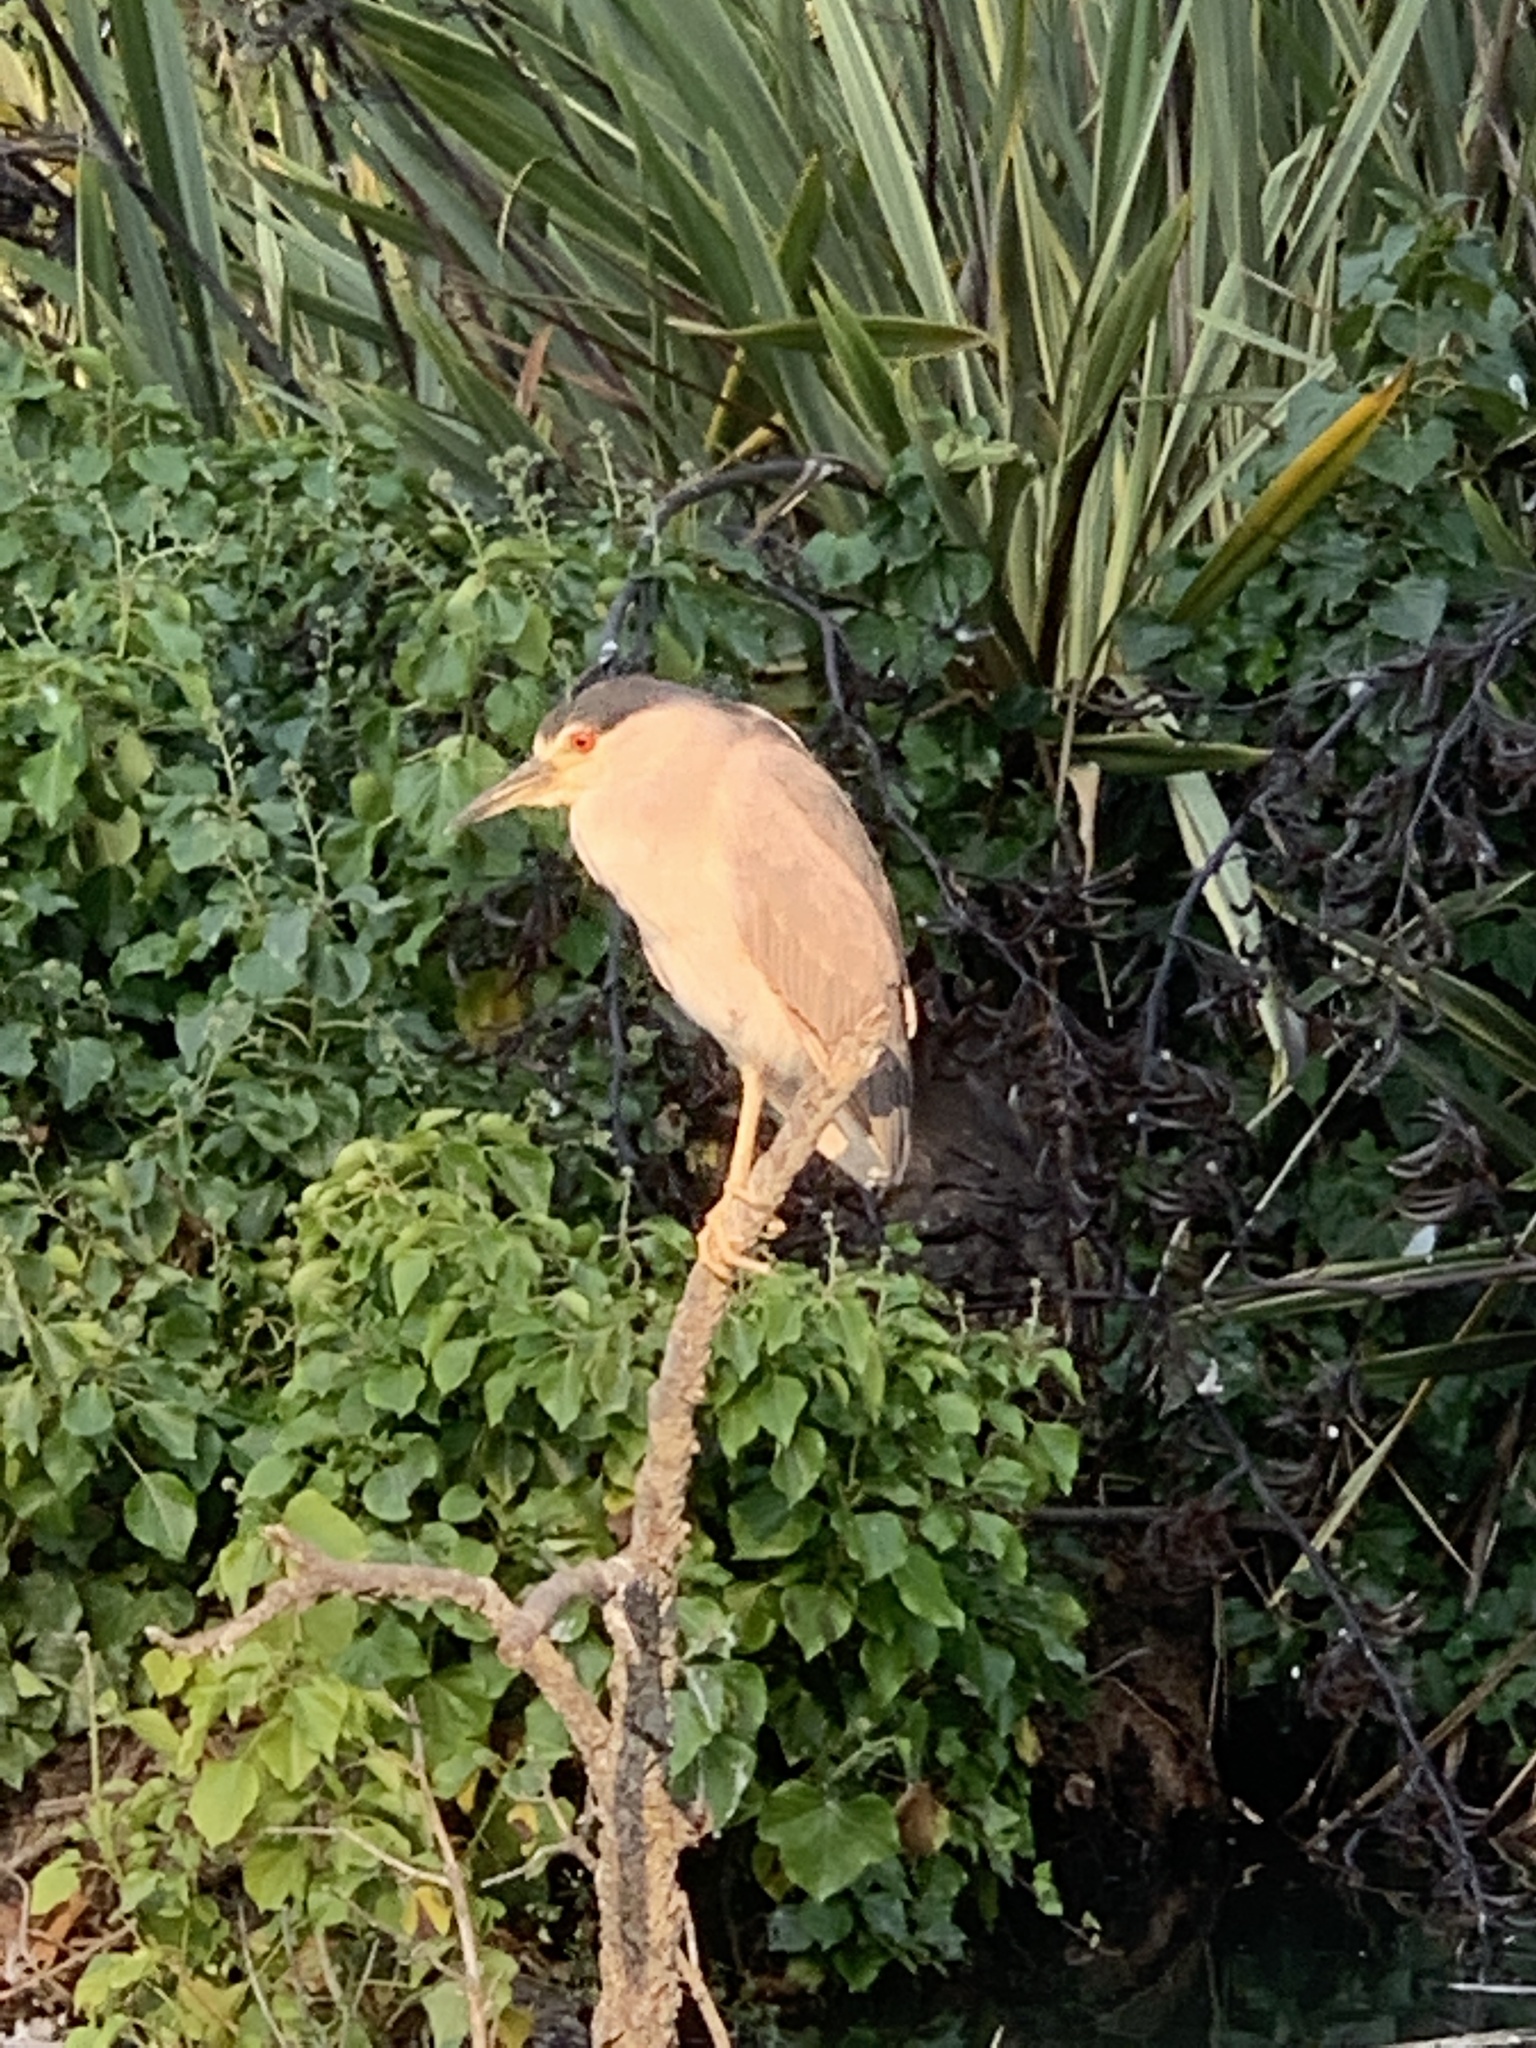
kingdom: Animalia
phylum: Chordata
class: Aves
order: Pelecaniformes
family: Ardeidae
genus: Nycticorax
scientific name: Nycticorax nycticorax
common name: Black-crowned night heron
